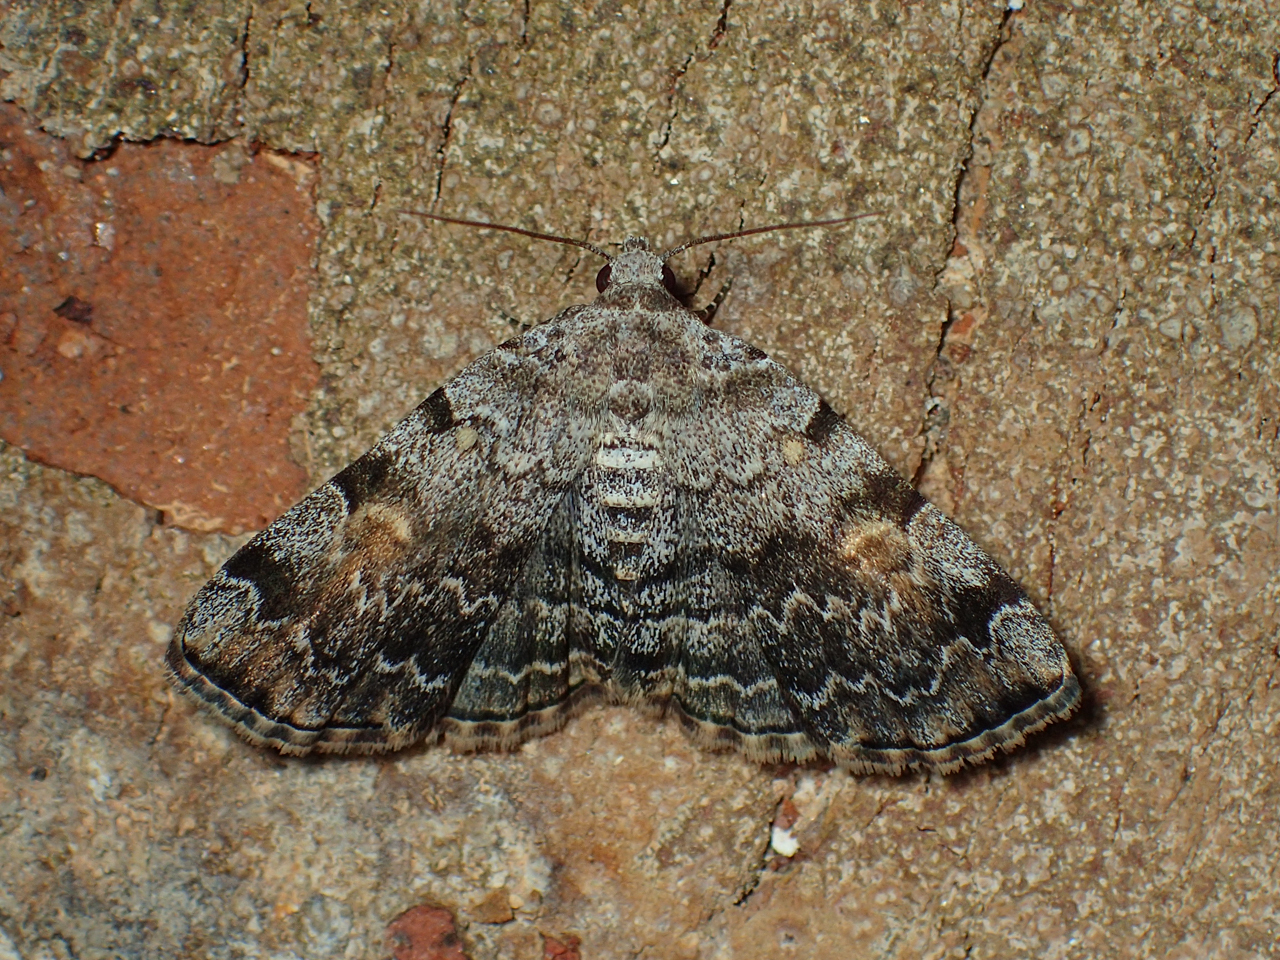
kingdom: Animalia
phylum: Arthropoda
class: Insecta
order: Lepidoptera
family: Erebidae
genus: Idia
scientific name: Idia americalis
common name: American idia moth
